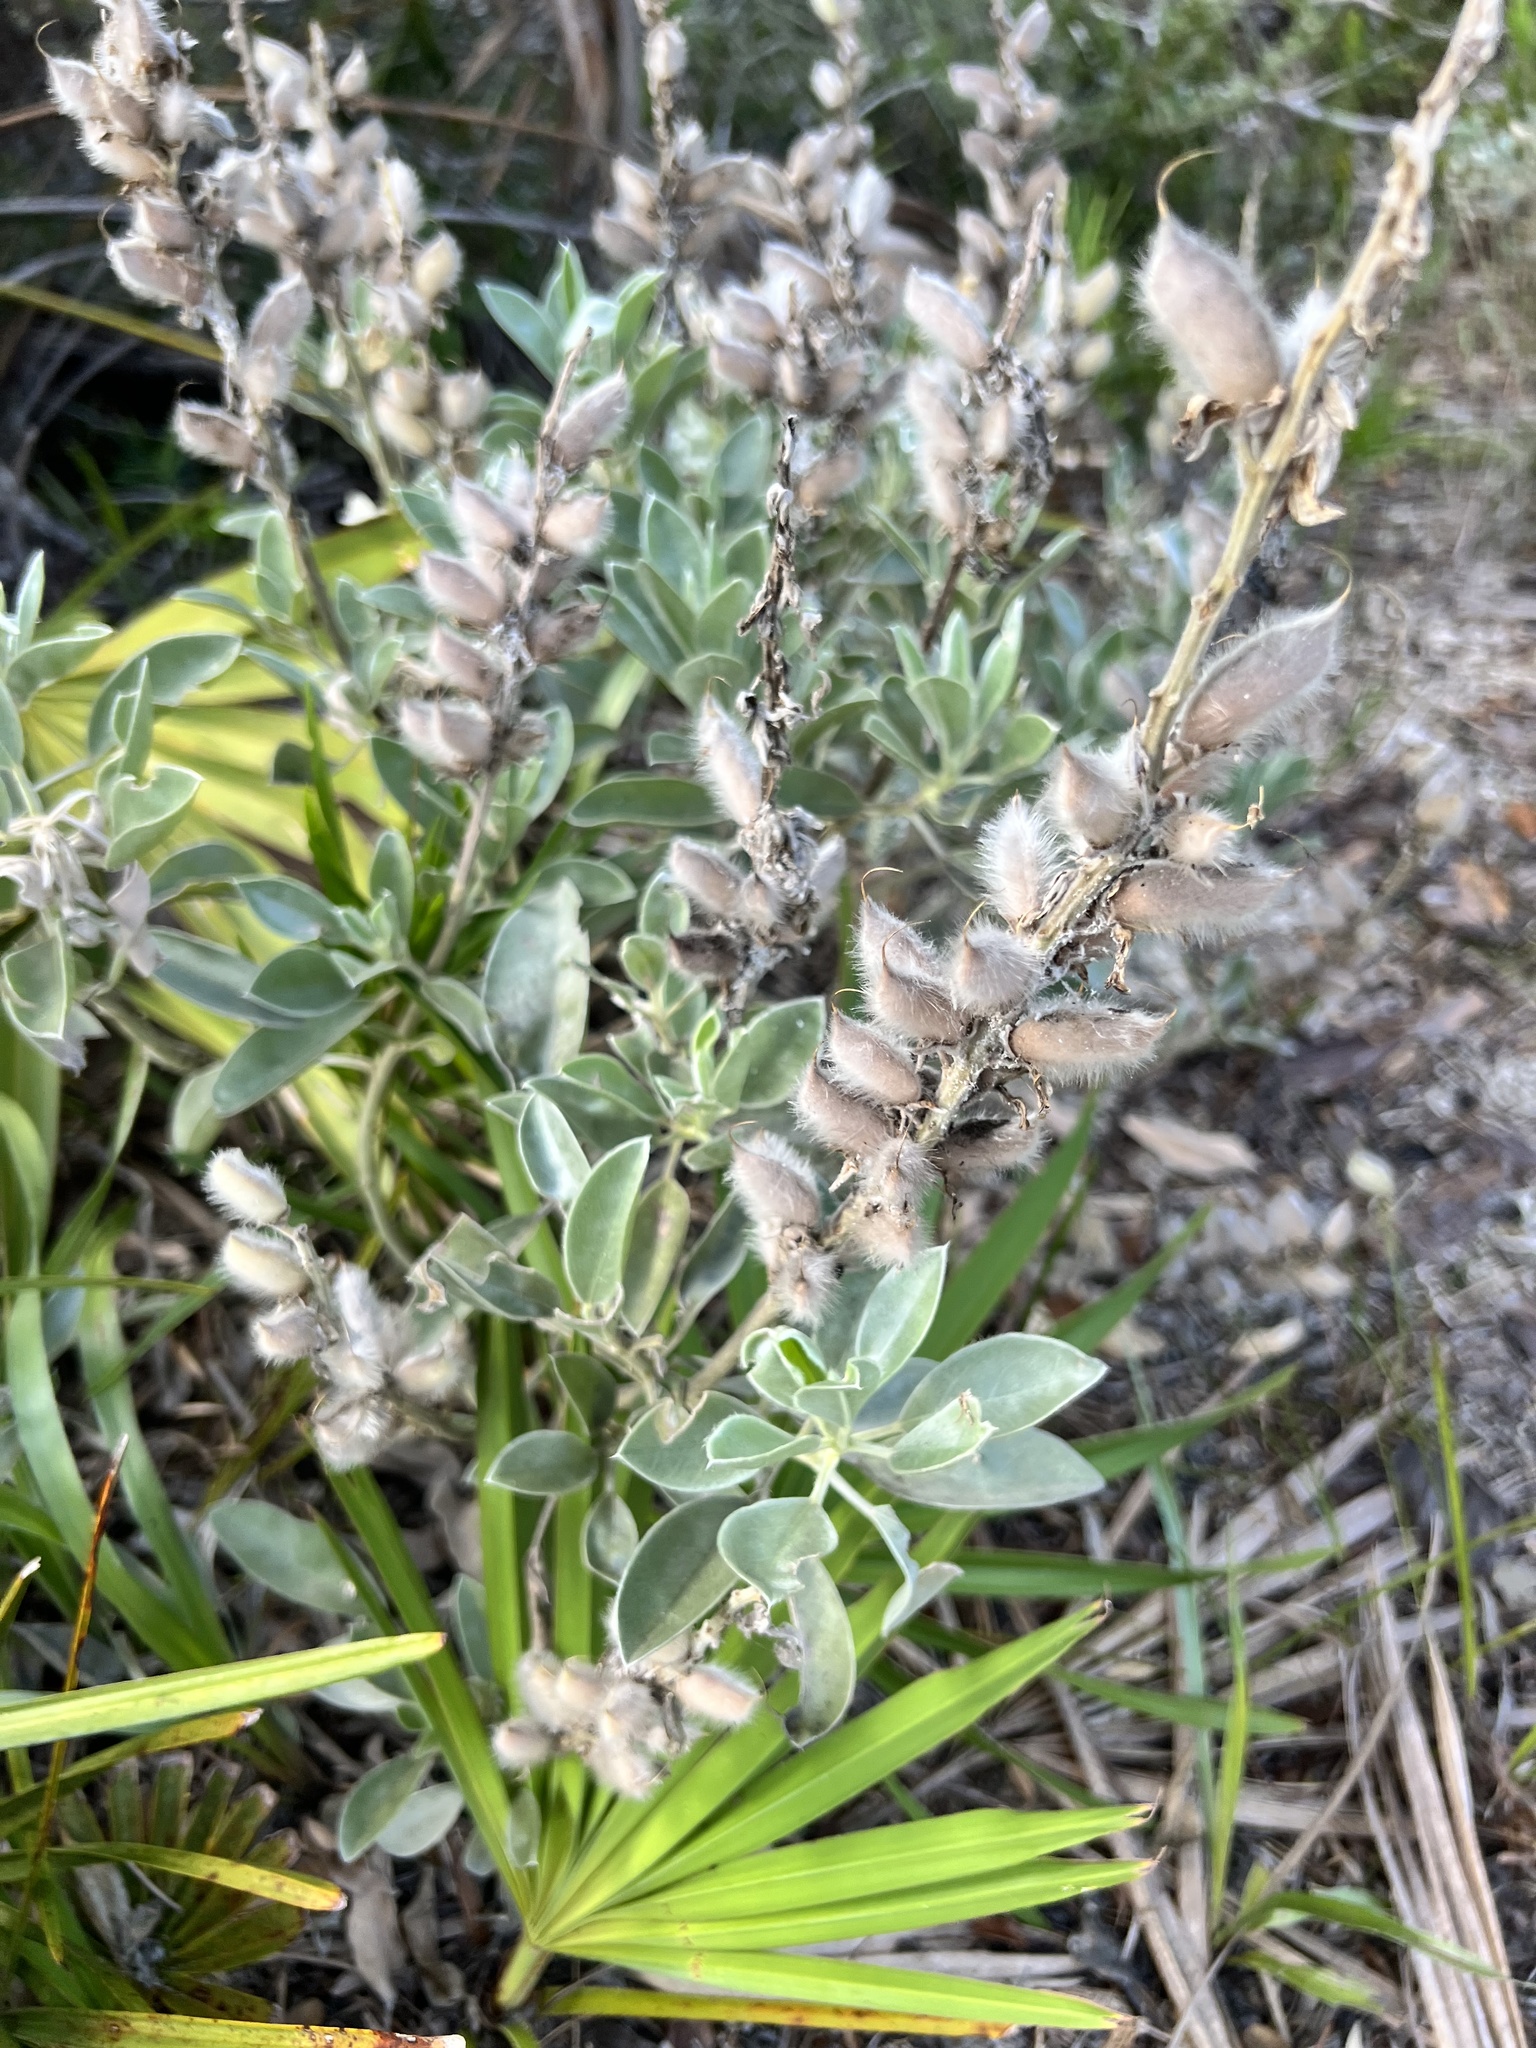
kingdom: Plantae
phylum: Tracheophyta
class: Magnoliopsida
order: Fabales
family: Fabaceae
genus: Lupinus
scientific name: Lupinus westianus
